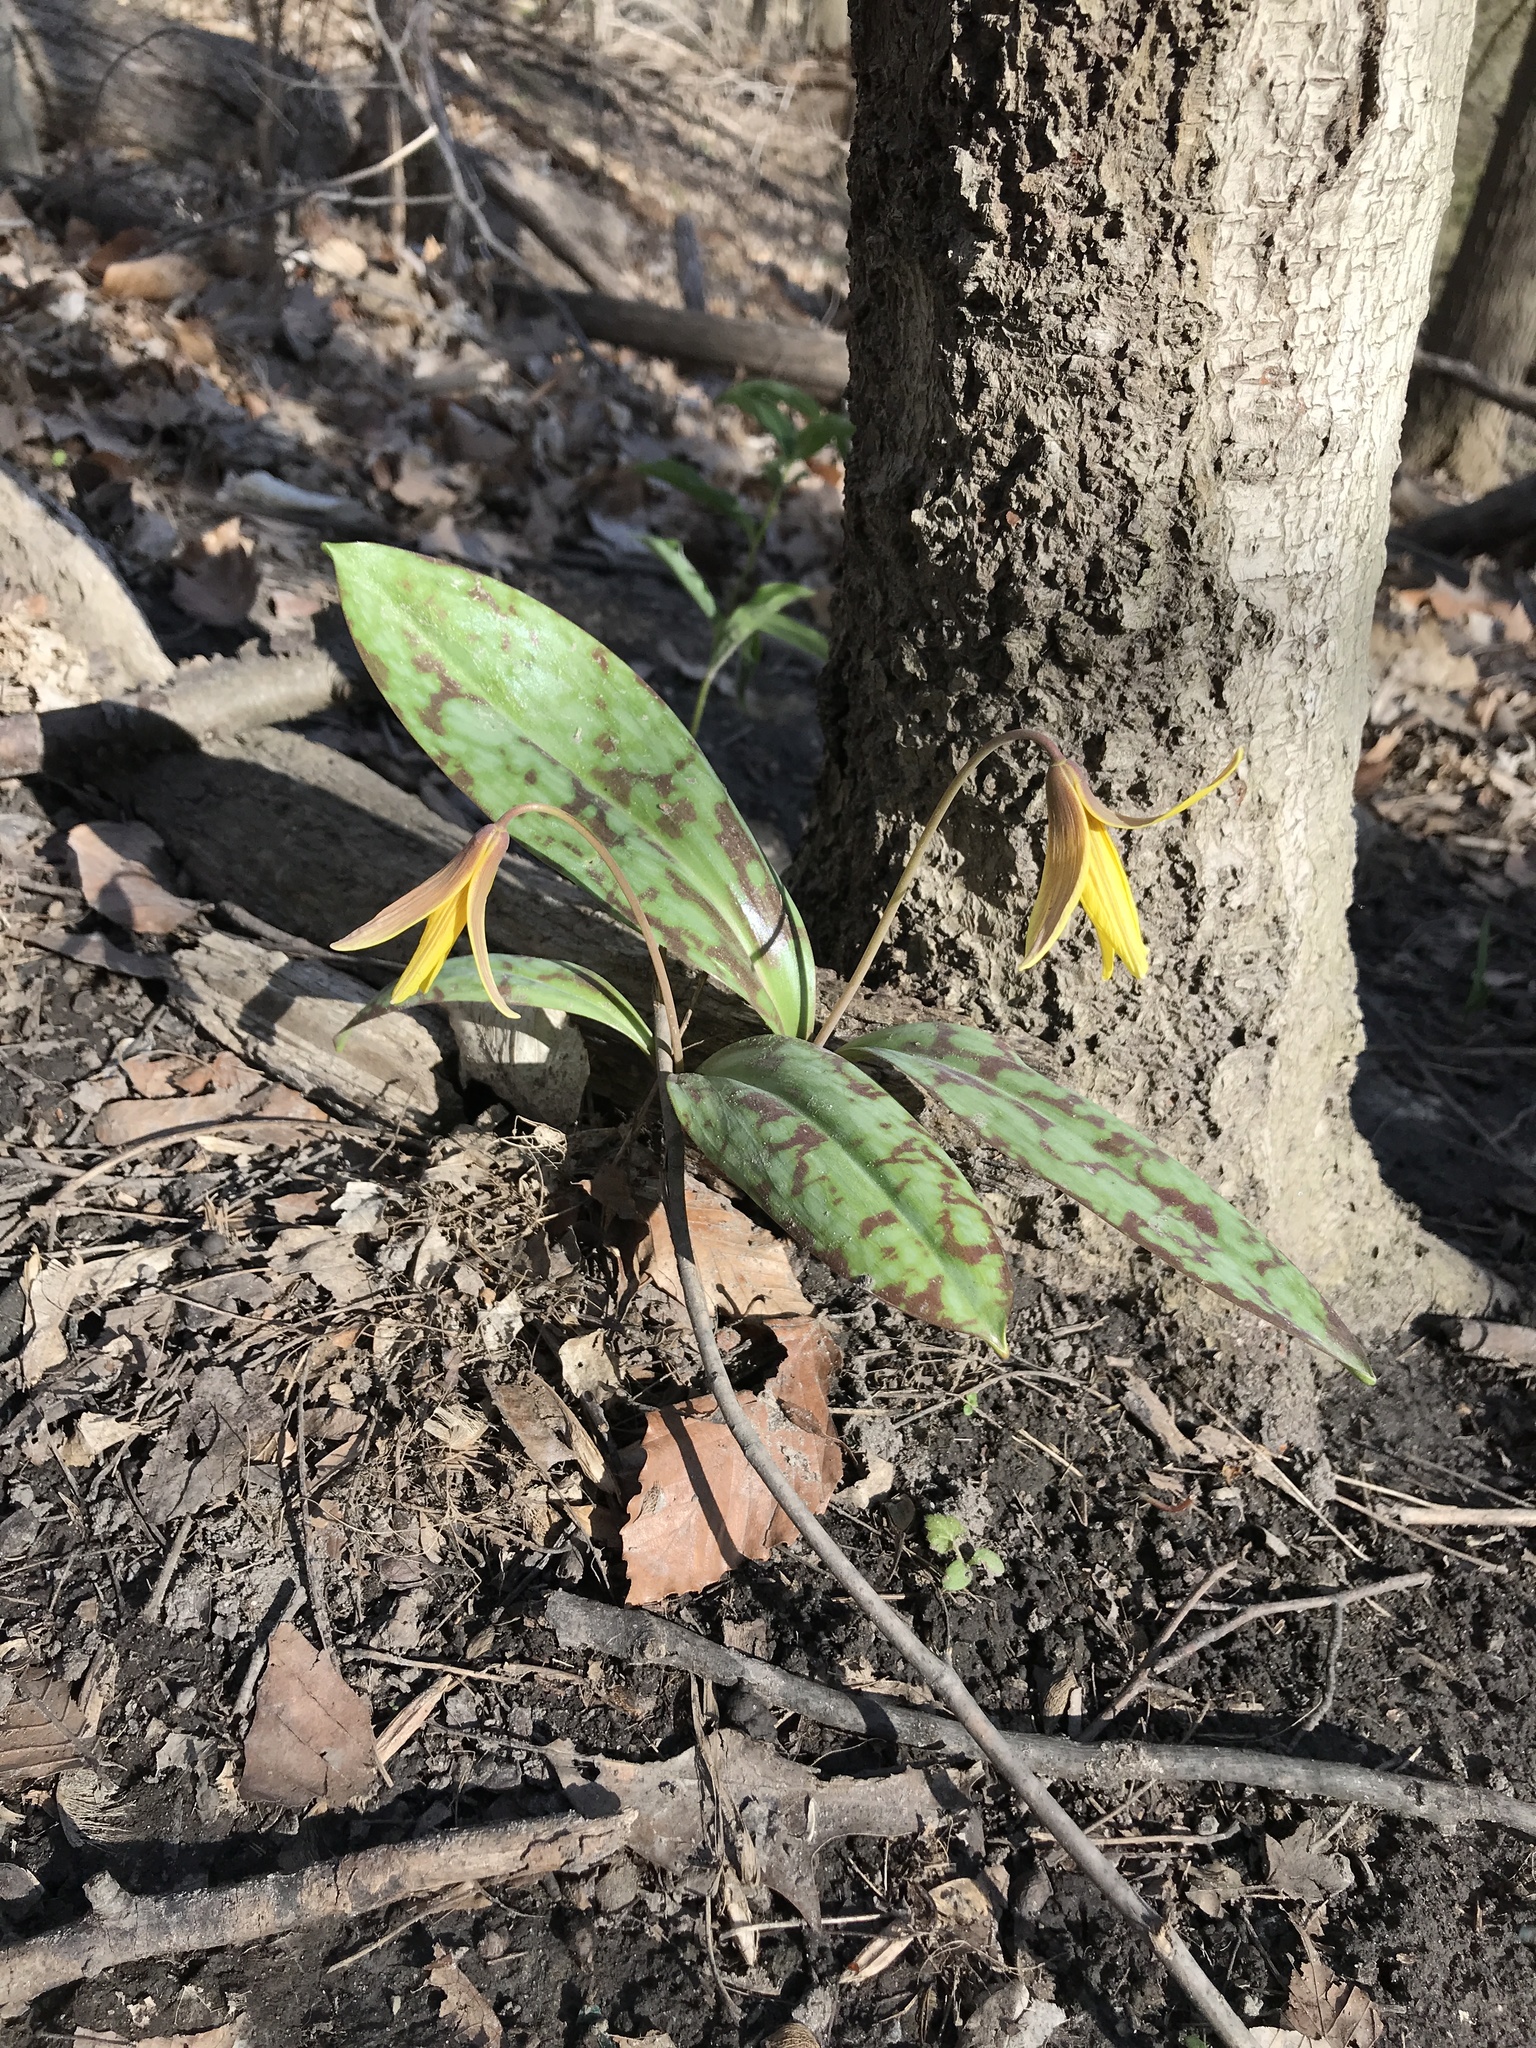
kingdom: Plantae
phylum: Tracheophyta
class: Liliopsida
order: Liliales
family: Liliaceae
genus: Erythronium
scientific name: Erythronium americanum
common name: Yellow adder's-tongue
